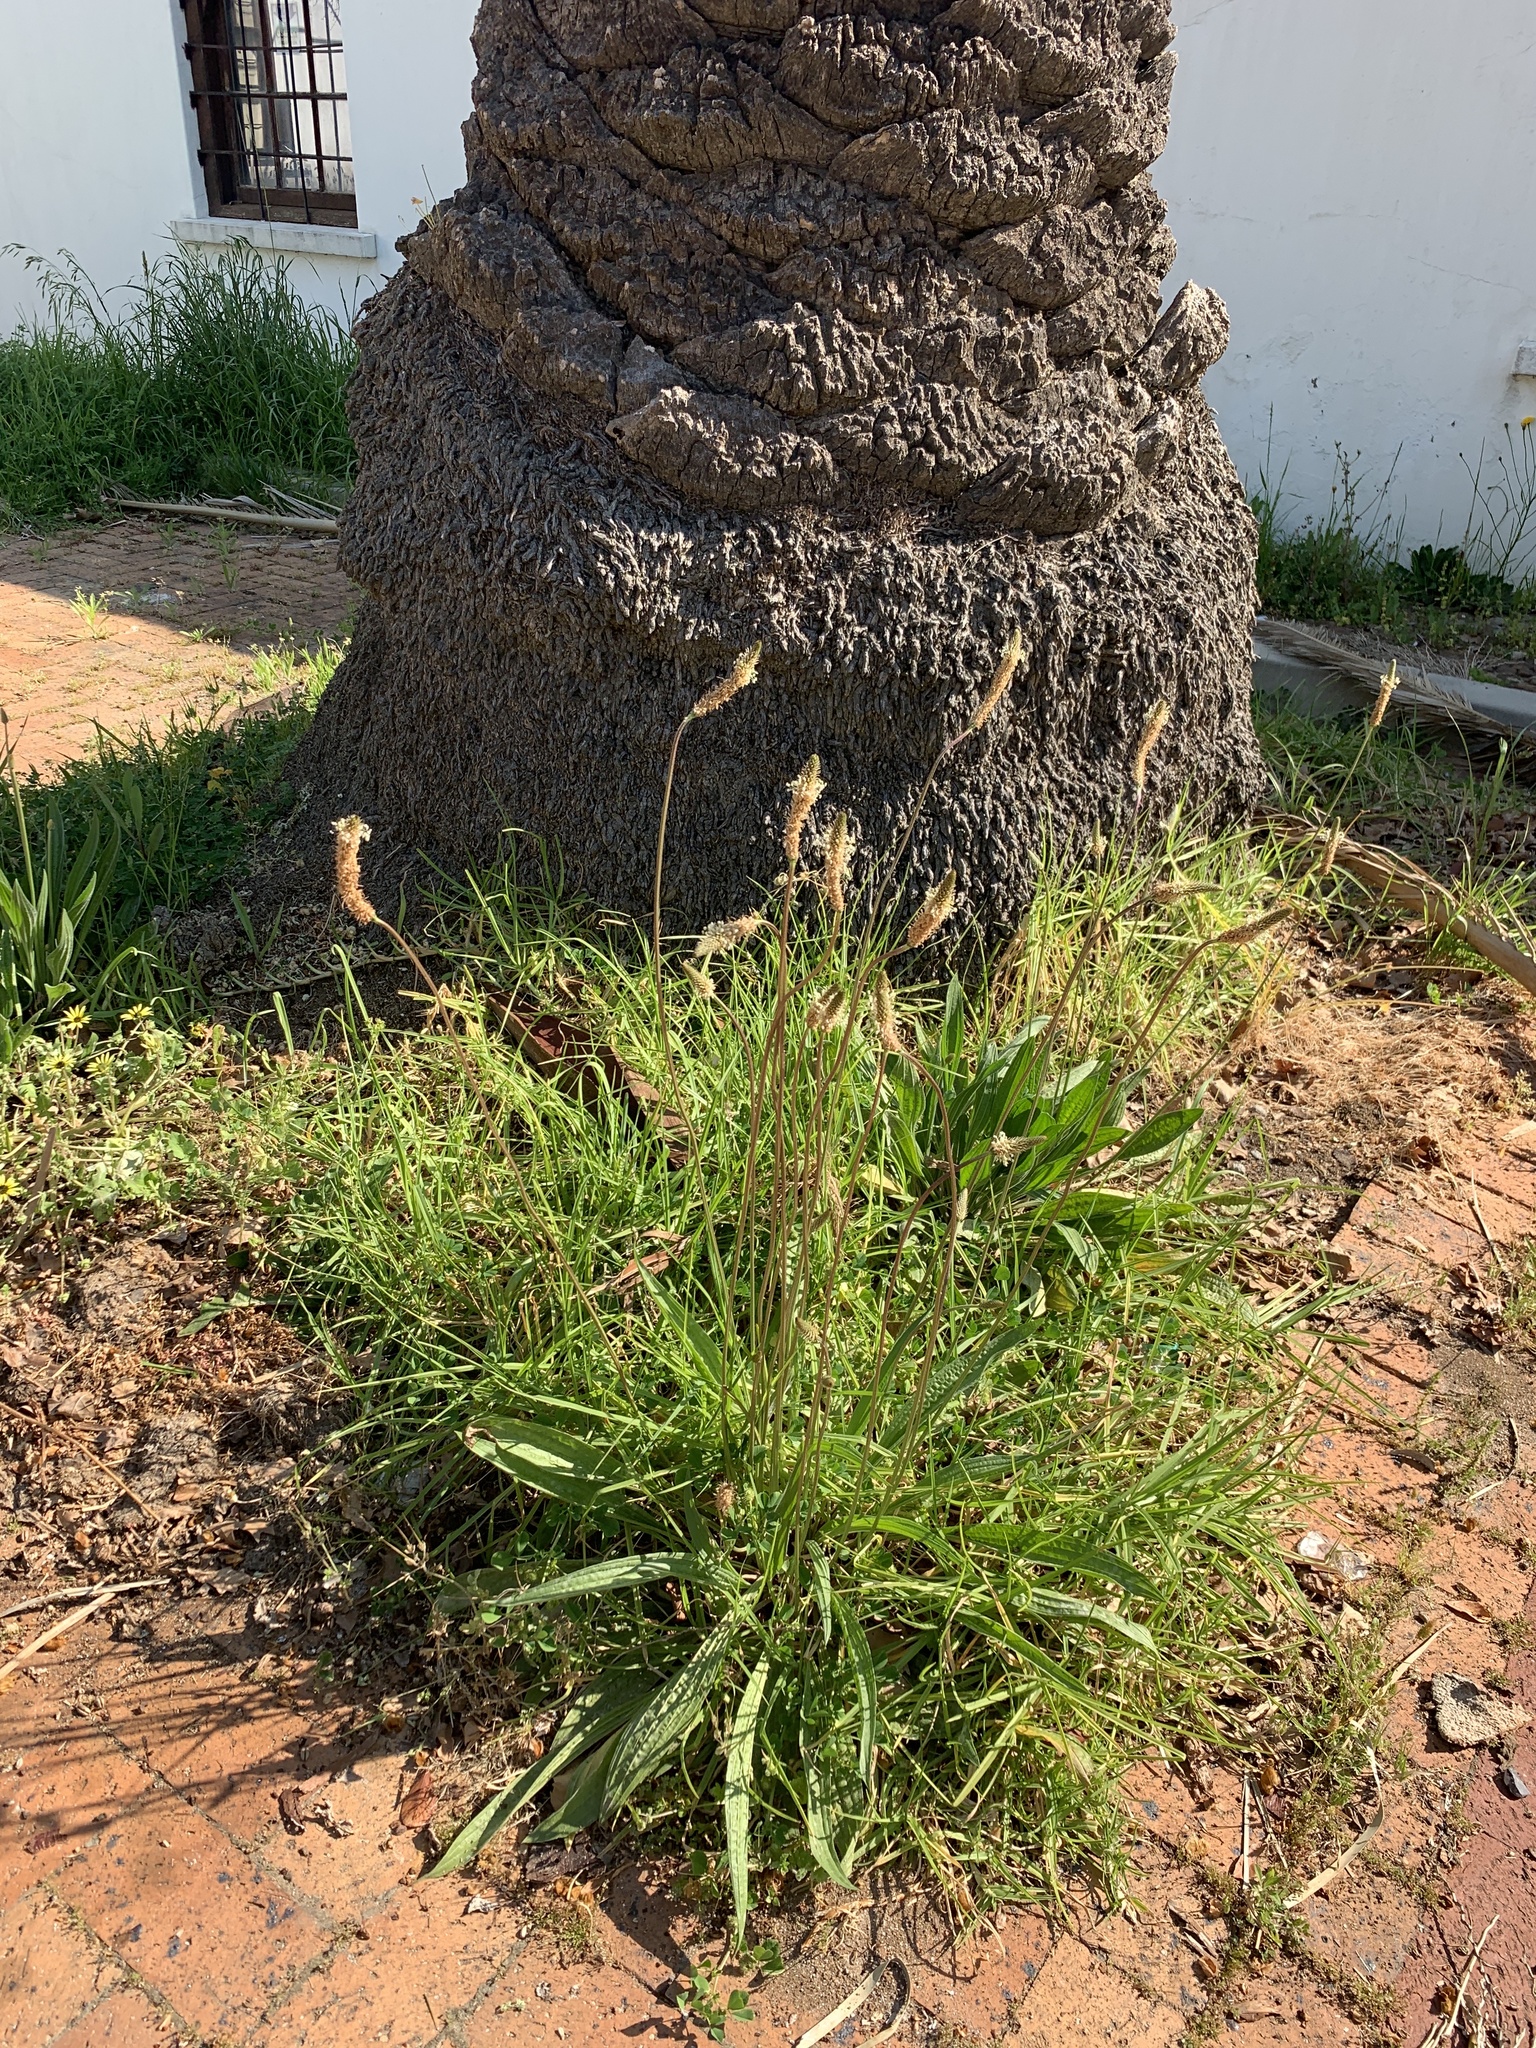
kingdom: Plantae
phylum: Tracheophyta
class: Magnoliopsida
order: Lamiales
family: Plantaginaceae
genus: Plantago
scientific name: Plantago lanceolata
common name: Ribwort plantain
